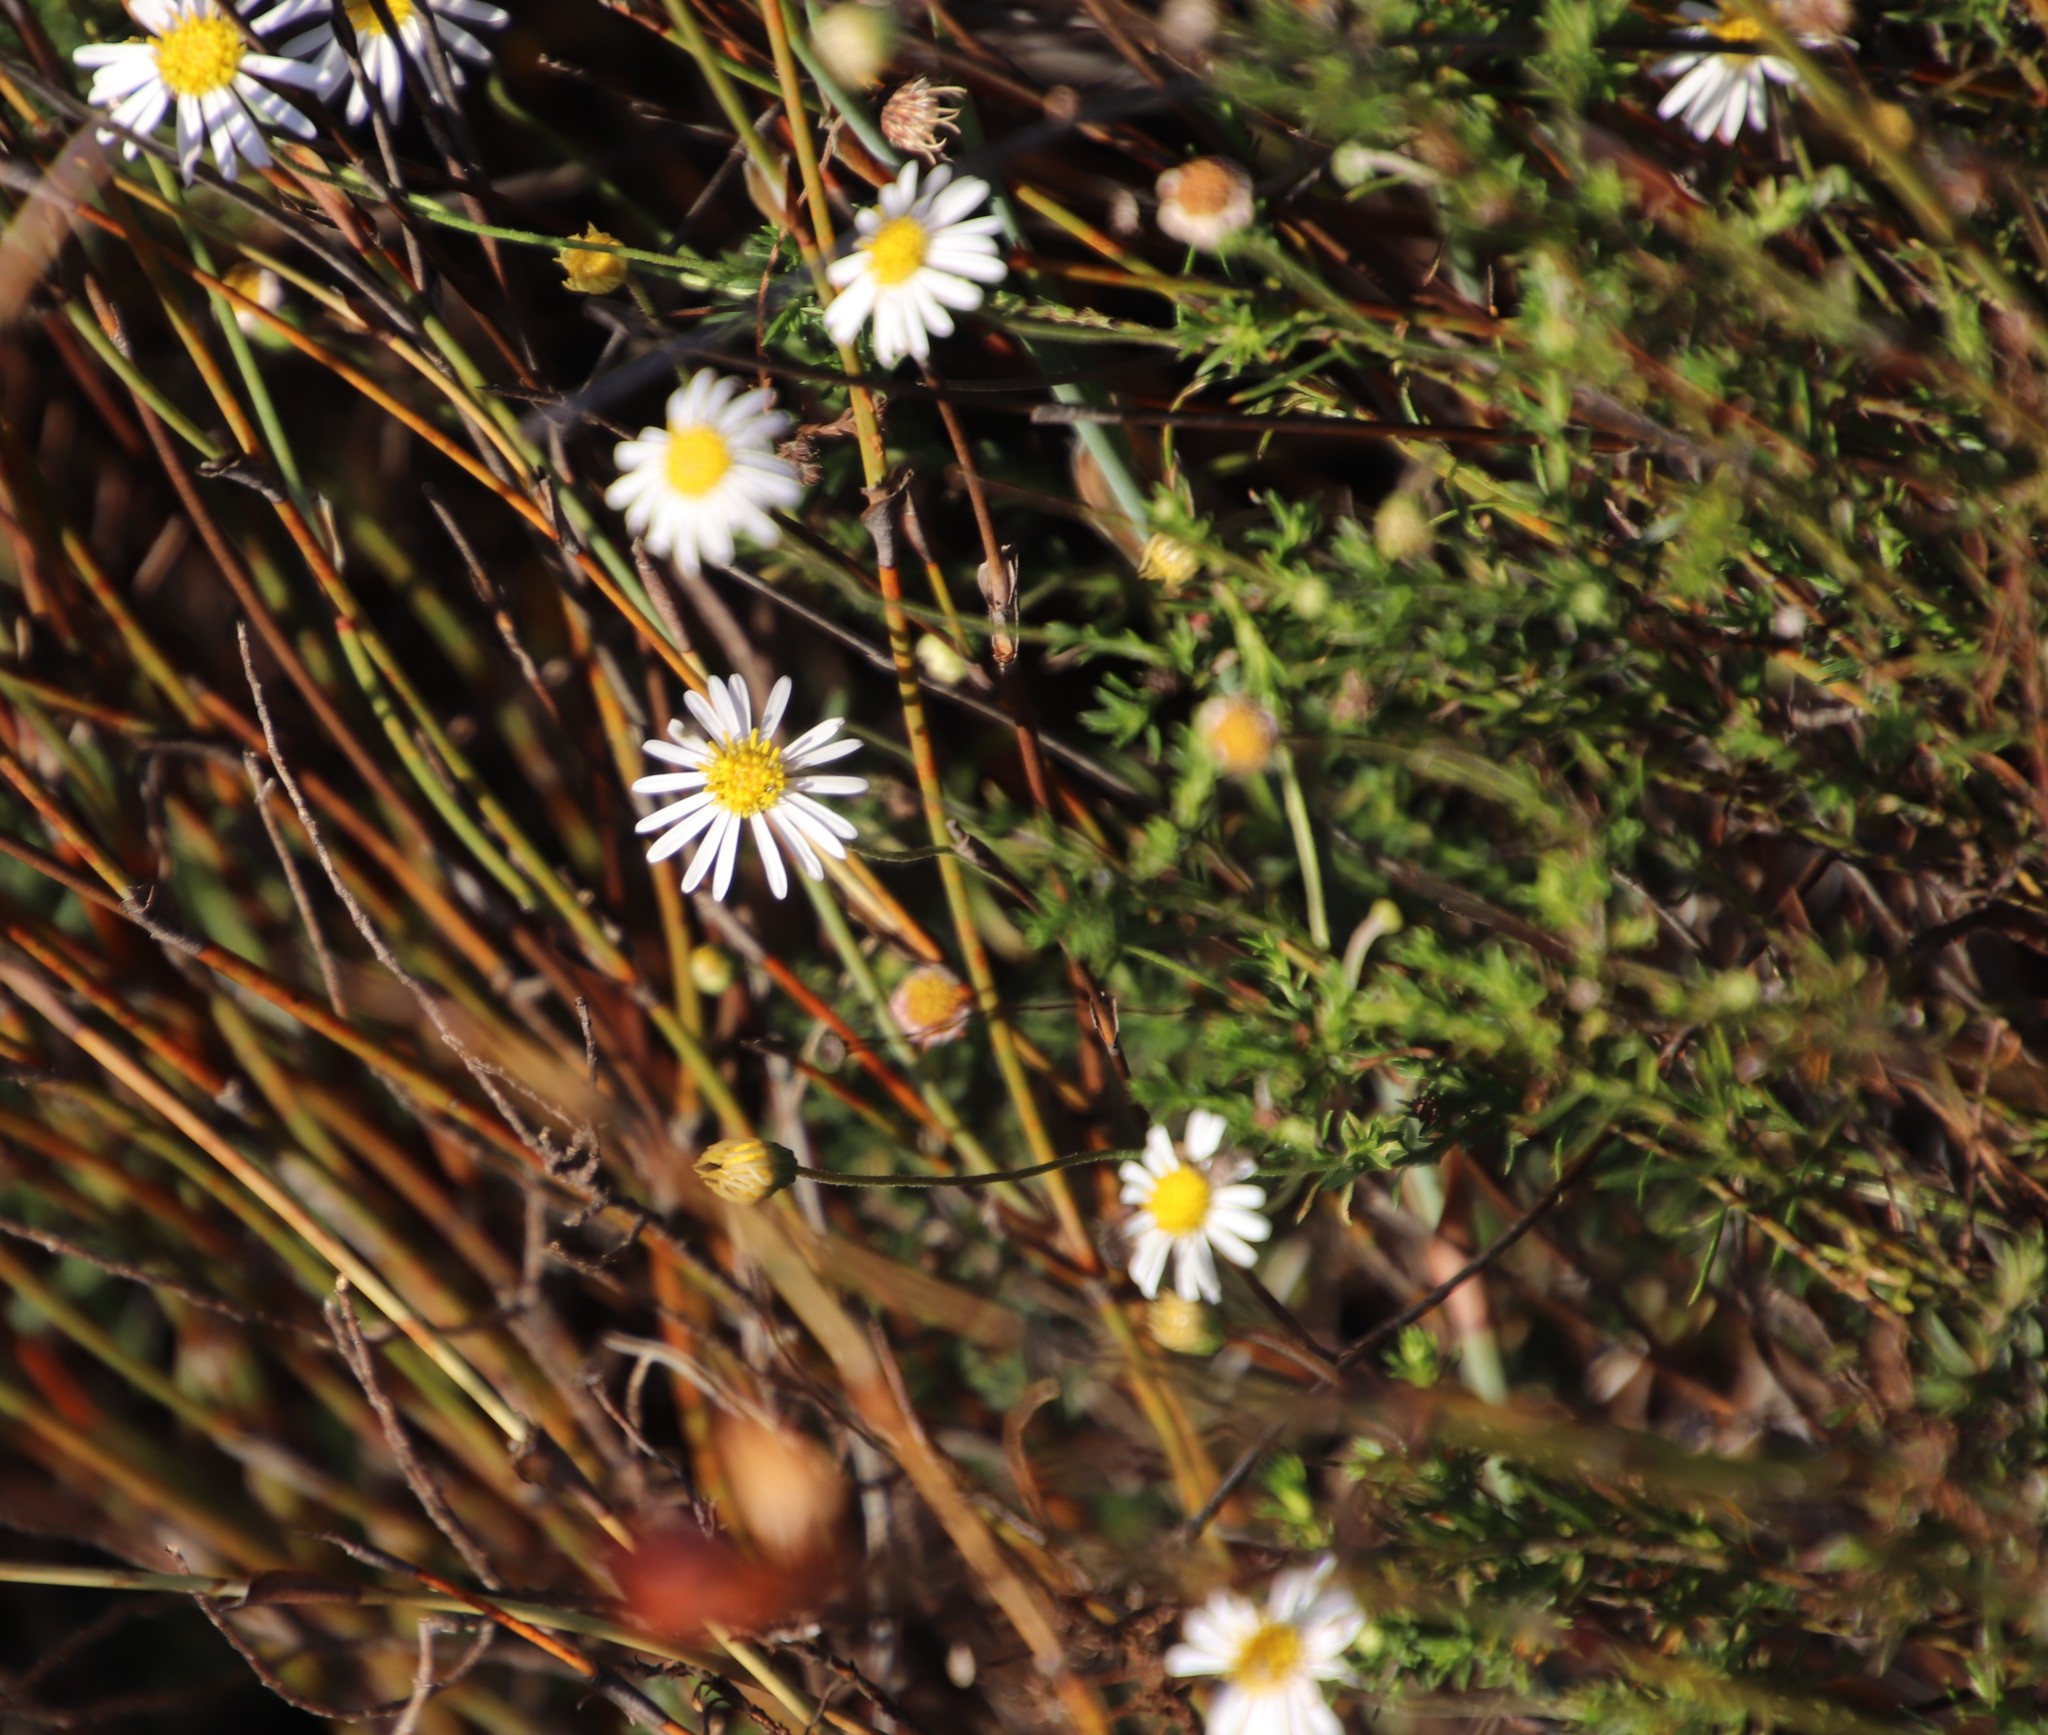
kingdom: Plantae
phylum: Tracheophyta
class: Magnoliopsida
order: Asterales
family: Asteraceae
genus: Felicia
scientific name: Felicia hyssopifolia
